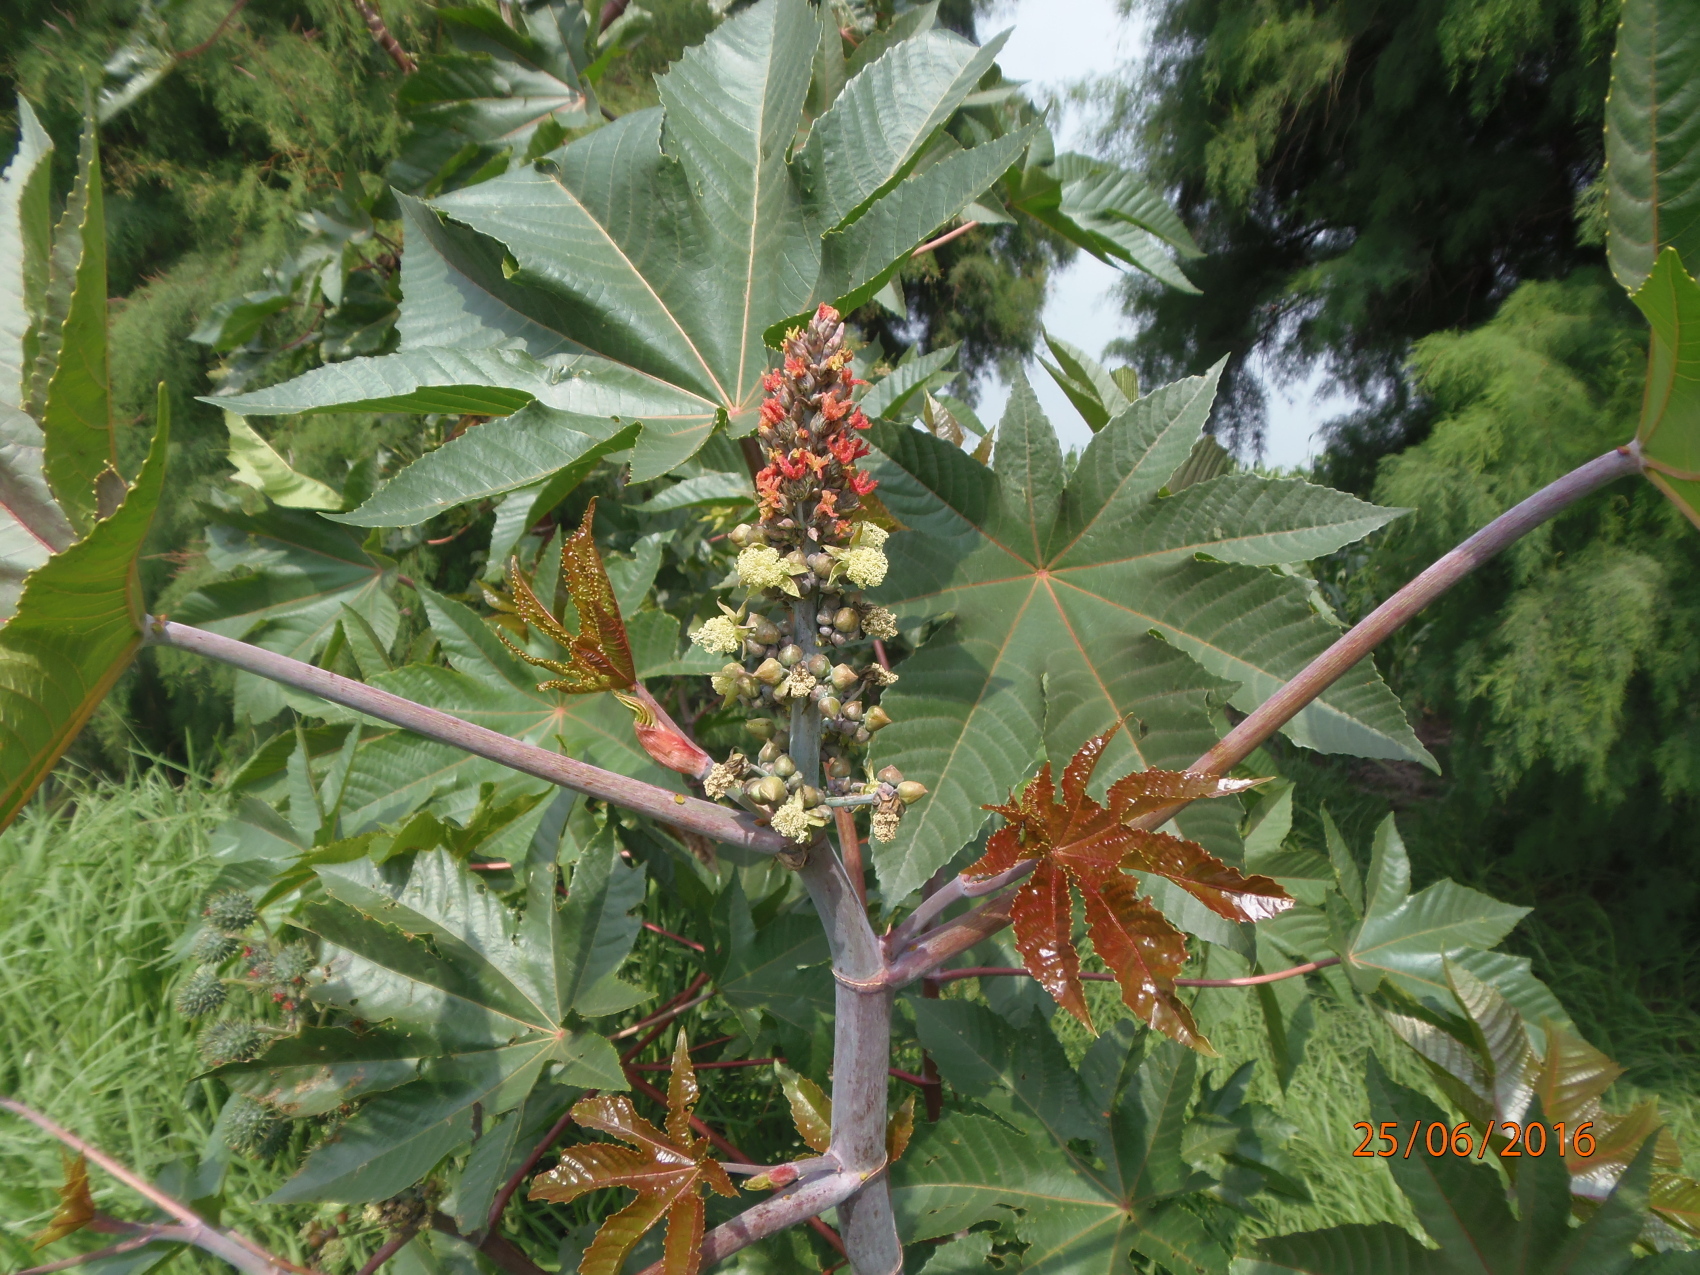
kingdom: Plantae
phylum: Tracheophyta
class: Magnoliopsida
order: Malpighiales
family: Euphorbiaceae
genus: Ricinus
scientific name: Ricinus communis
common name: Castor-oil-plant
